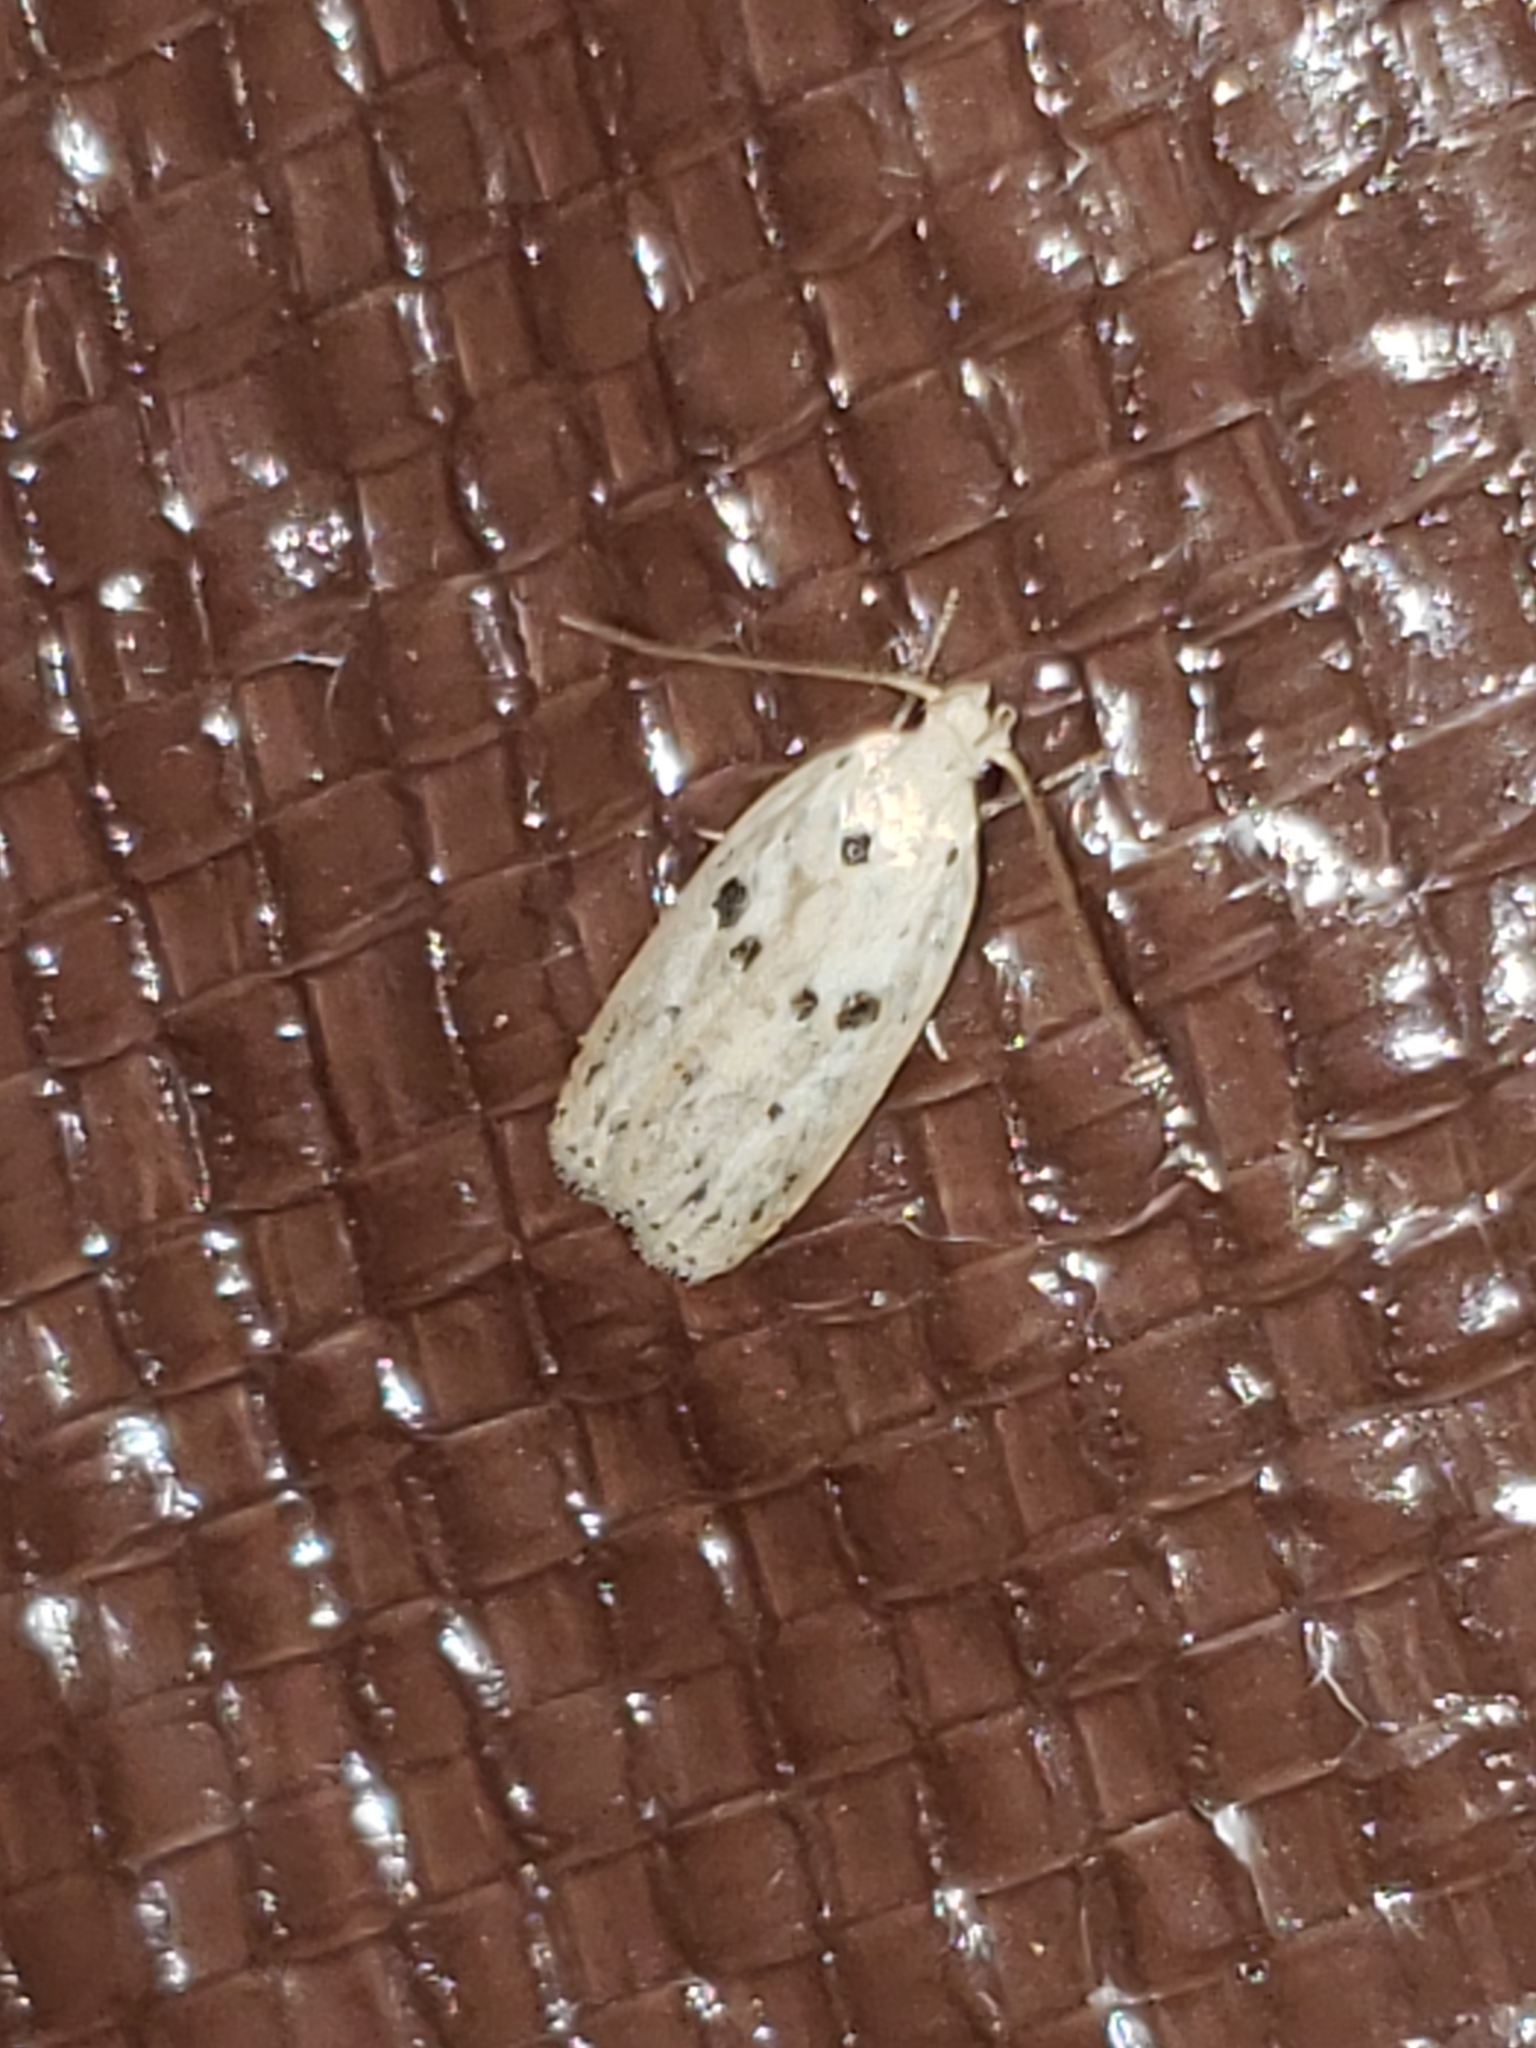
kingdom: Animalia
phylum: Arthropoda
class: Insecta
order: Lepidoptera
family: Peleopodidae
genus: Scythropiodes
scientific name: Scythropiodes issikii
